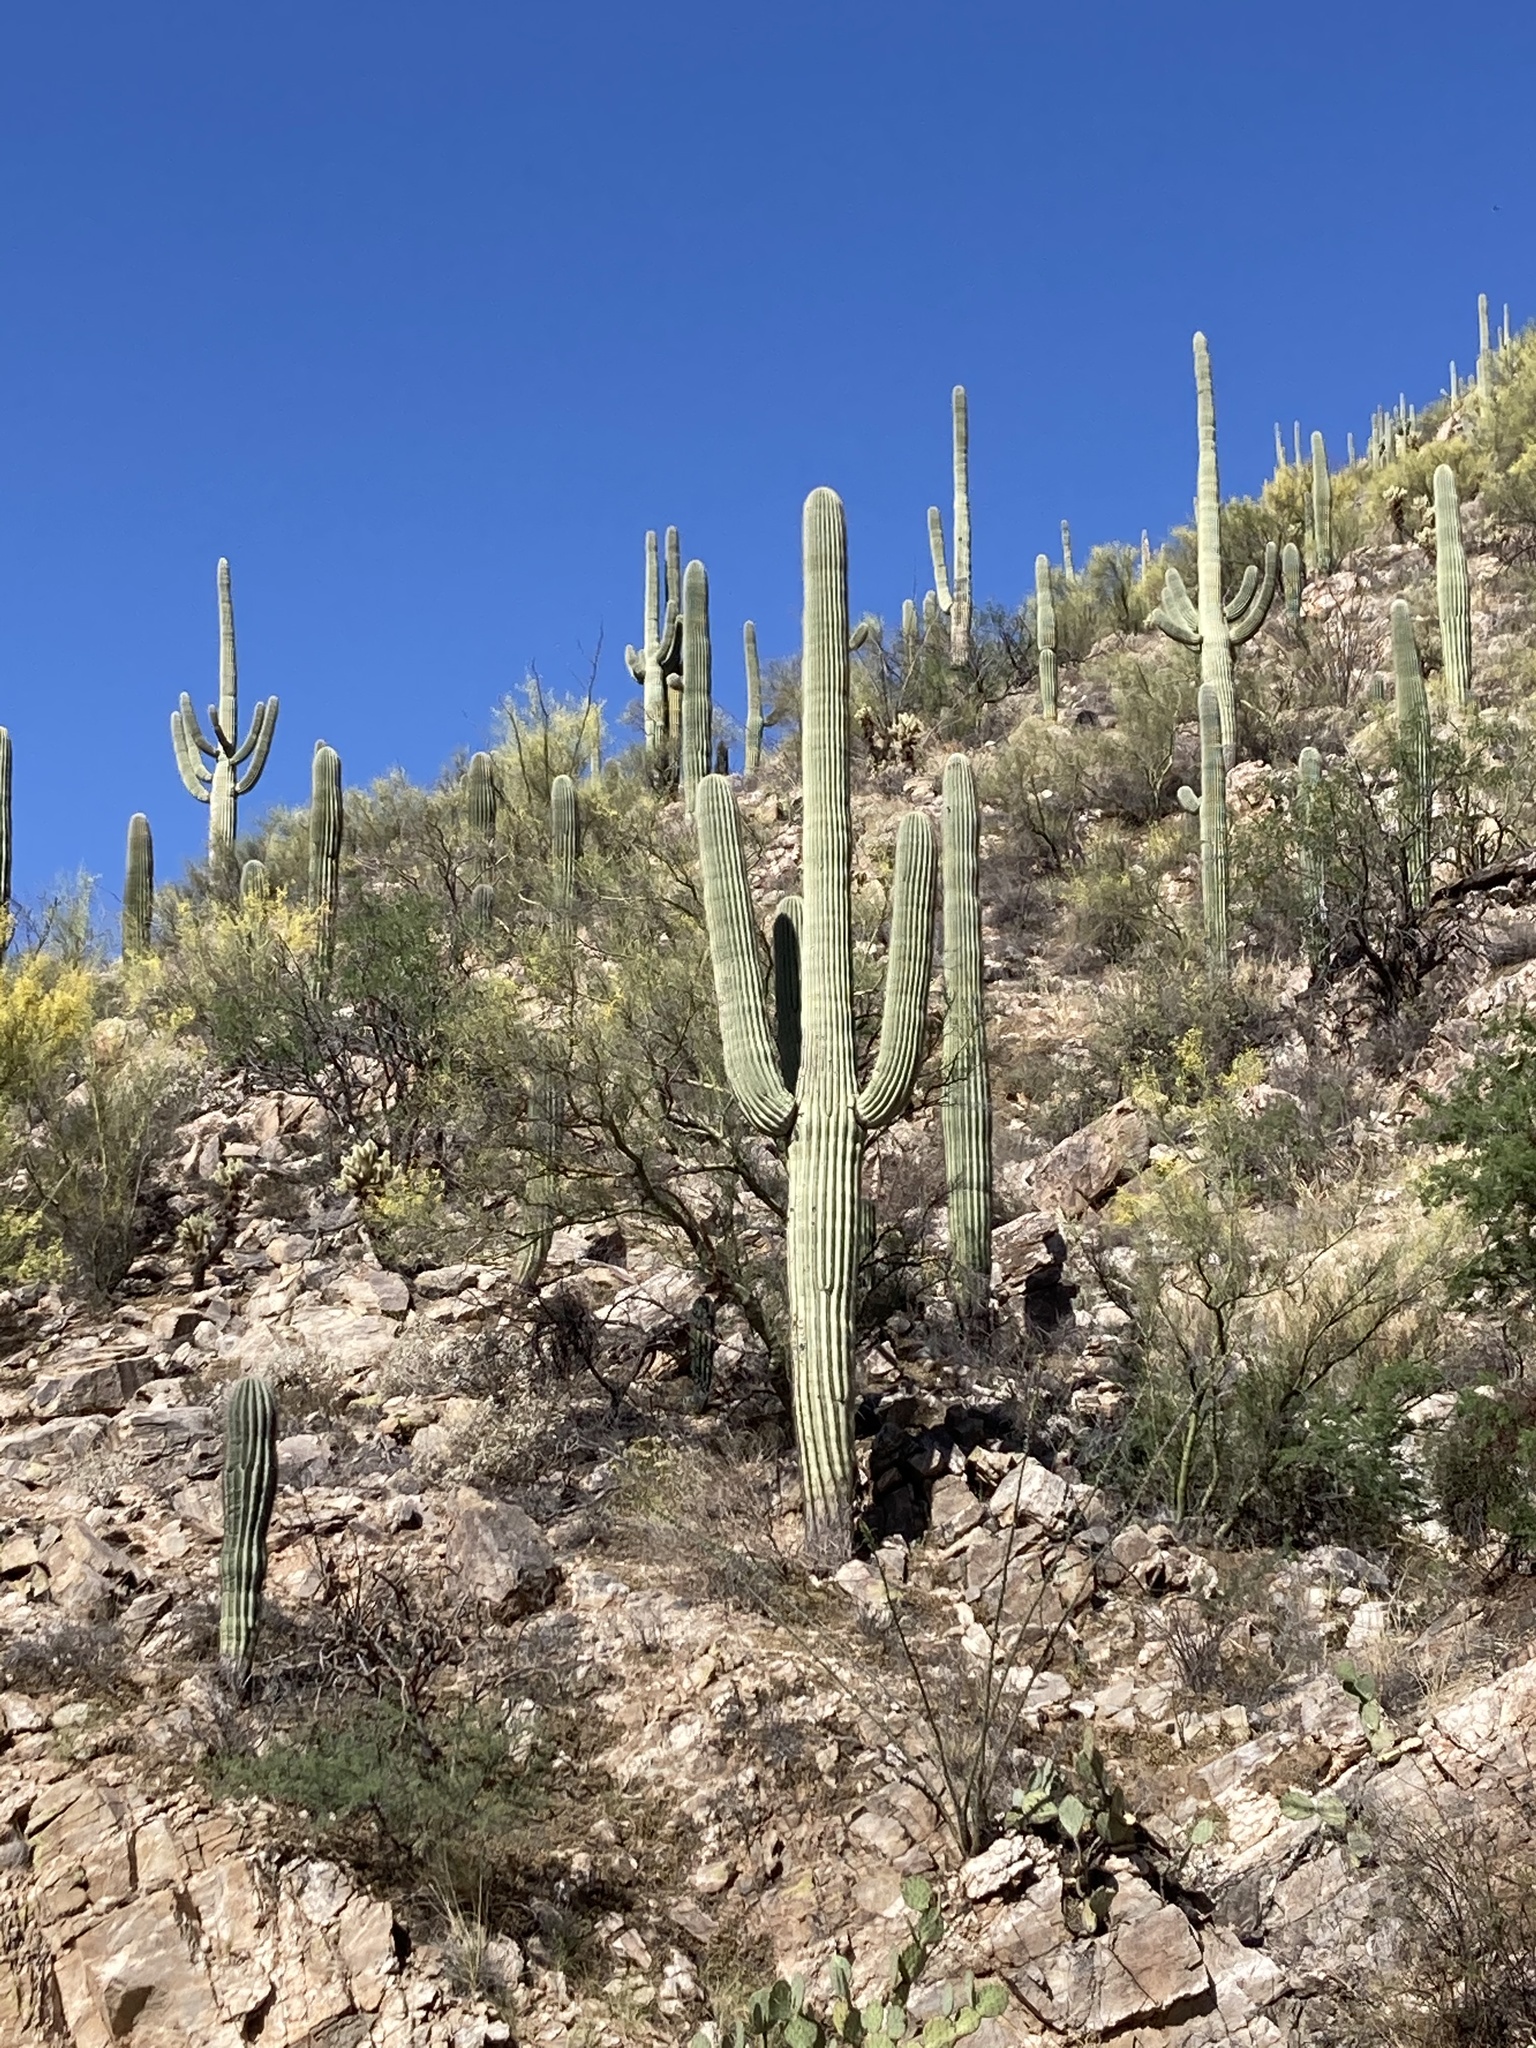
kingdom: Plantae
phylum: Tracheophyta
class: Magnoliopsida
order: Caryophyllales
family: Cactaceae
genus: Carnegiea
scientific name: Carnegiea gigantea
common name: Saguaro
